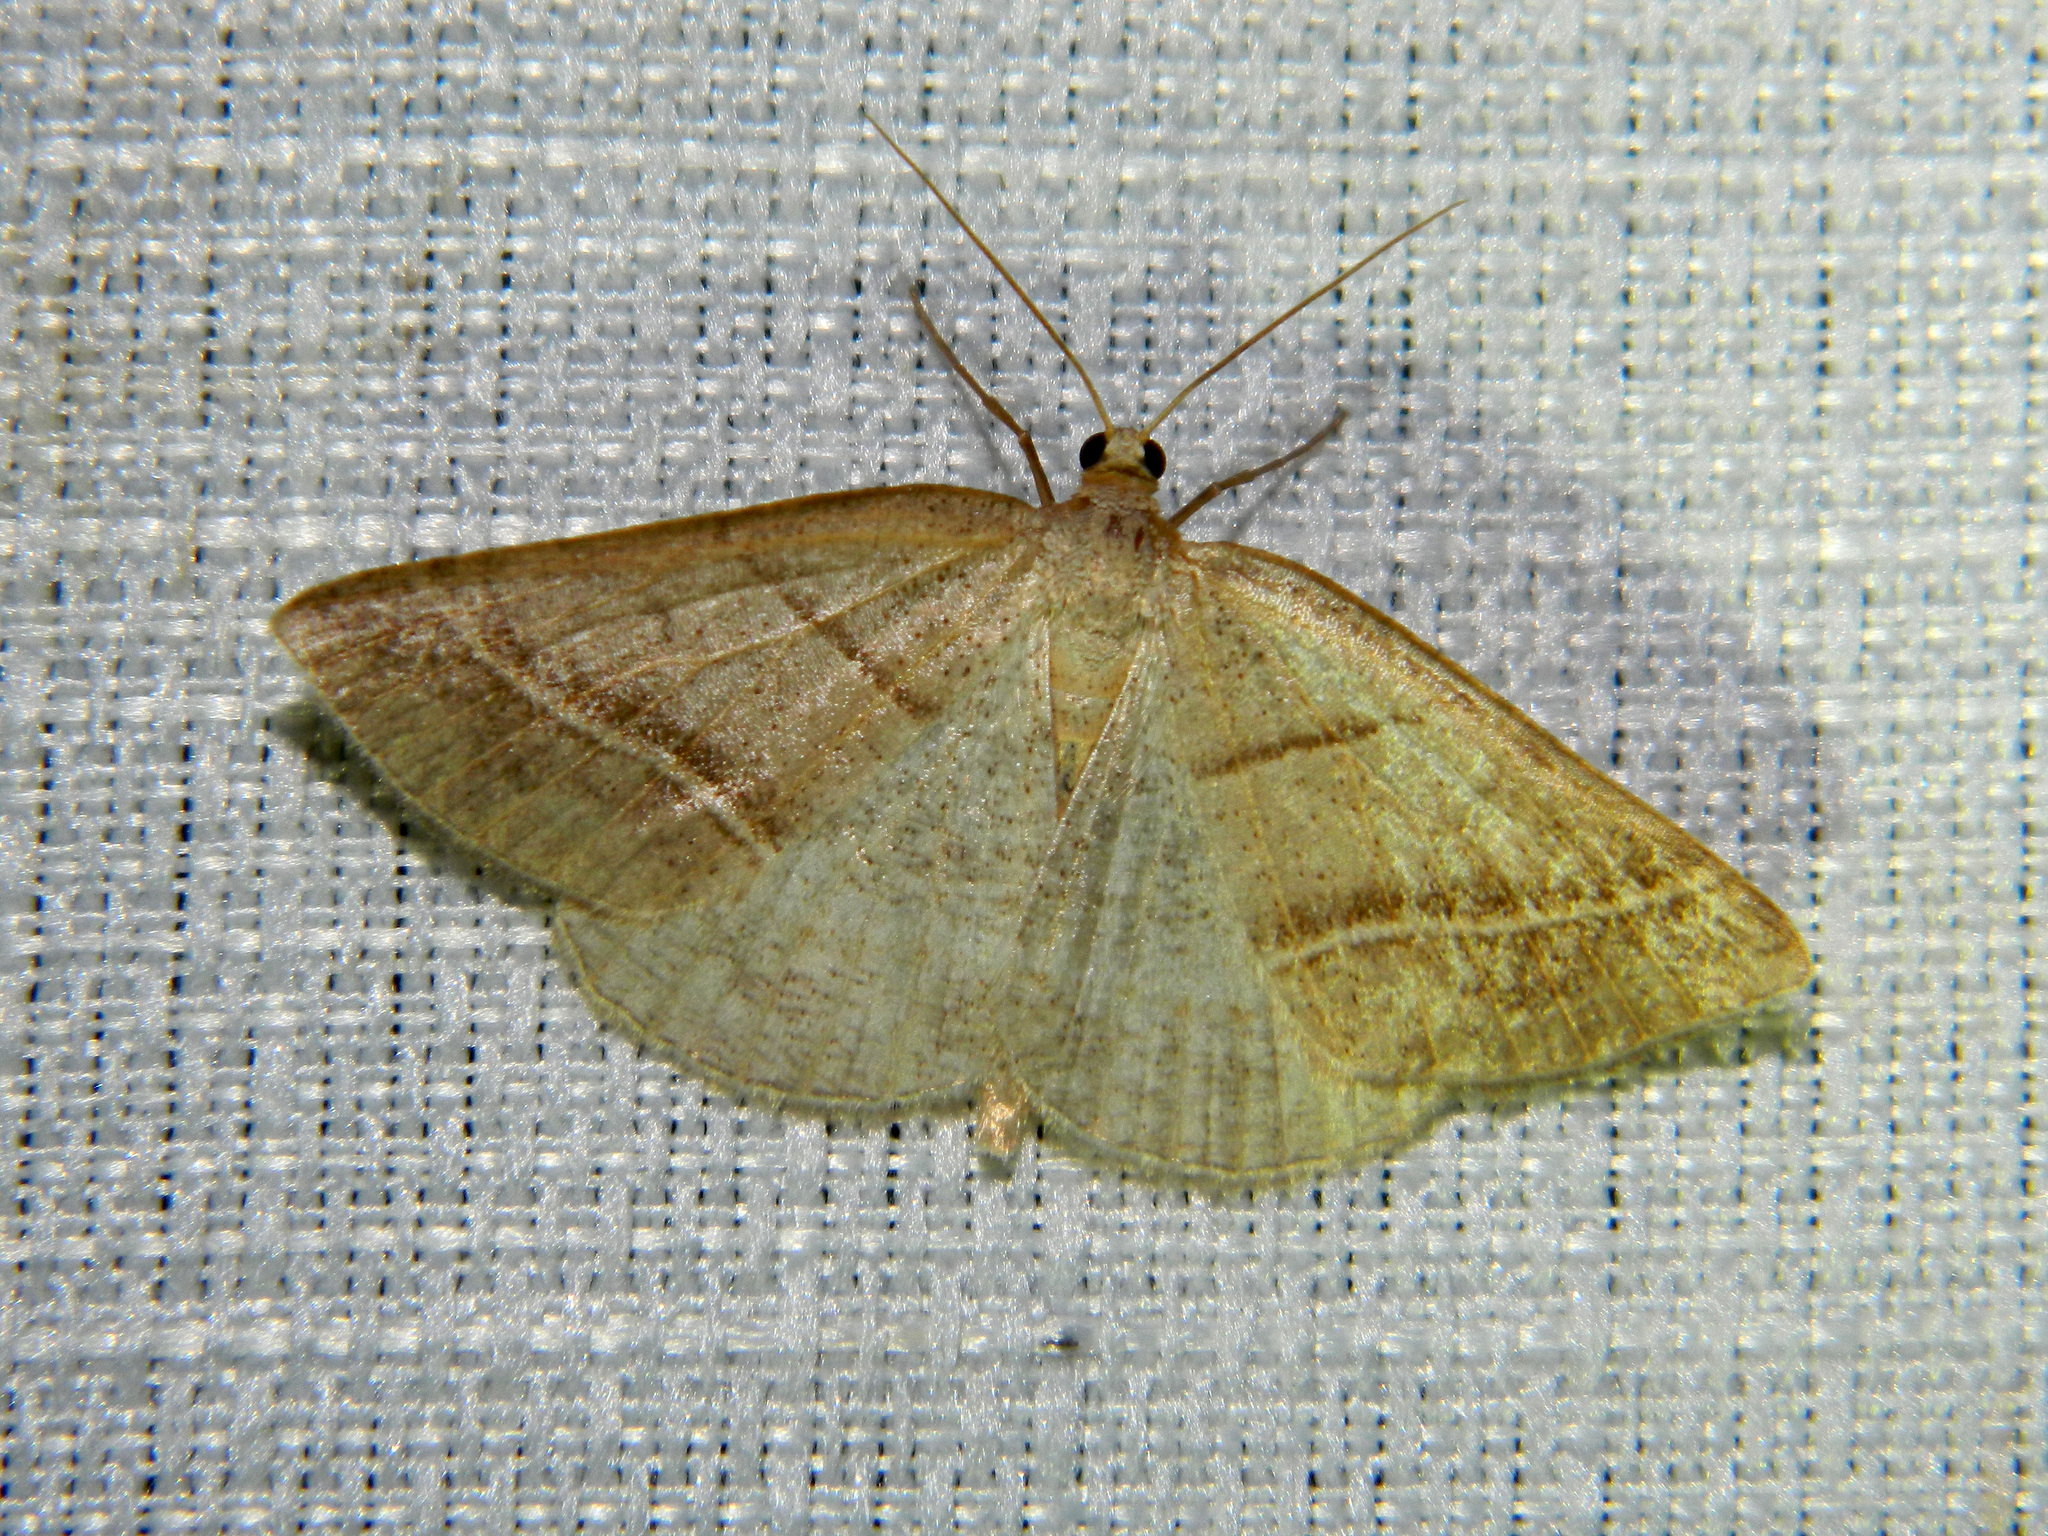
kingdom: Animalia
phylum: Arthropoda
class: Insecta
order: Lepidoptera
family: Pterophoridae
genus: Pterophorus
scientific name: Pterophorus Petrophora subaequaria
